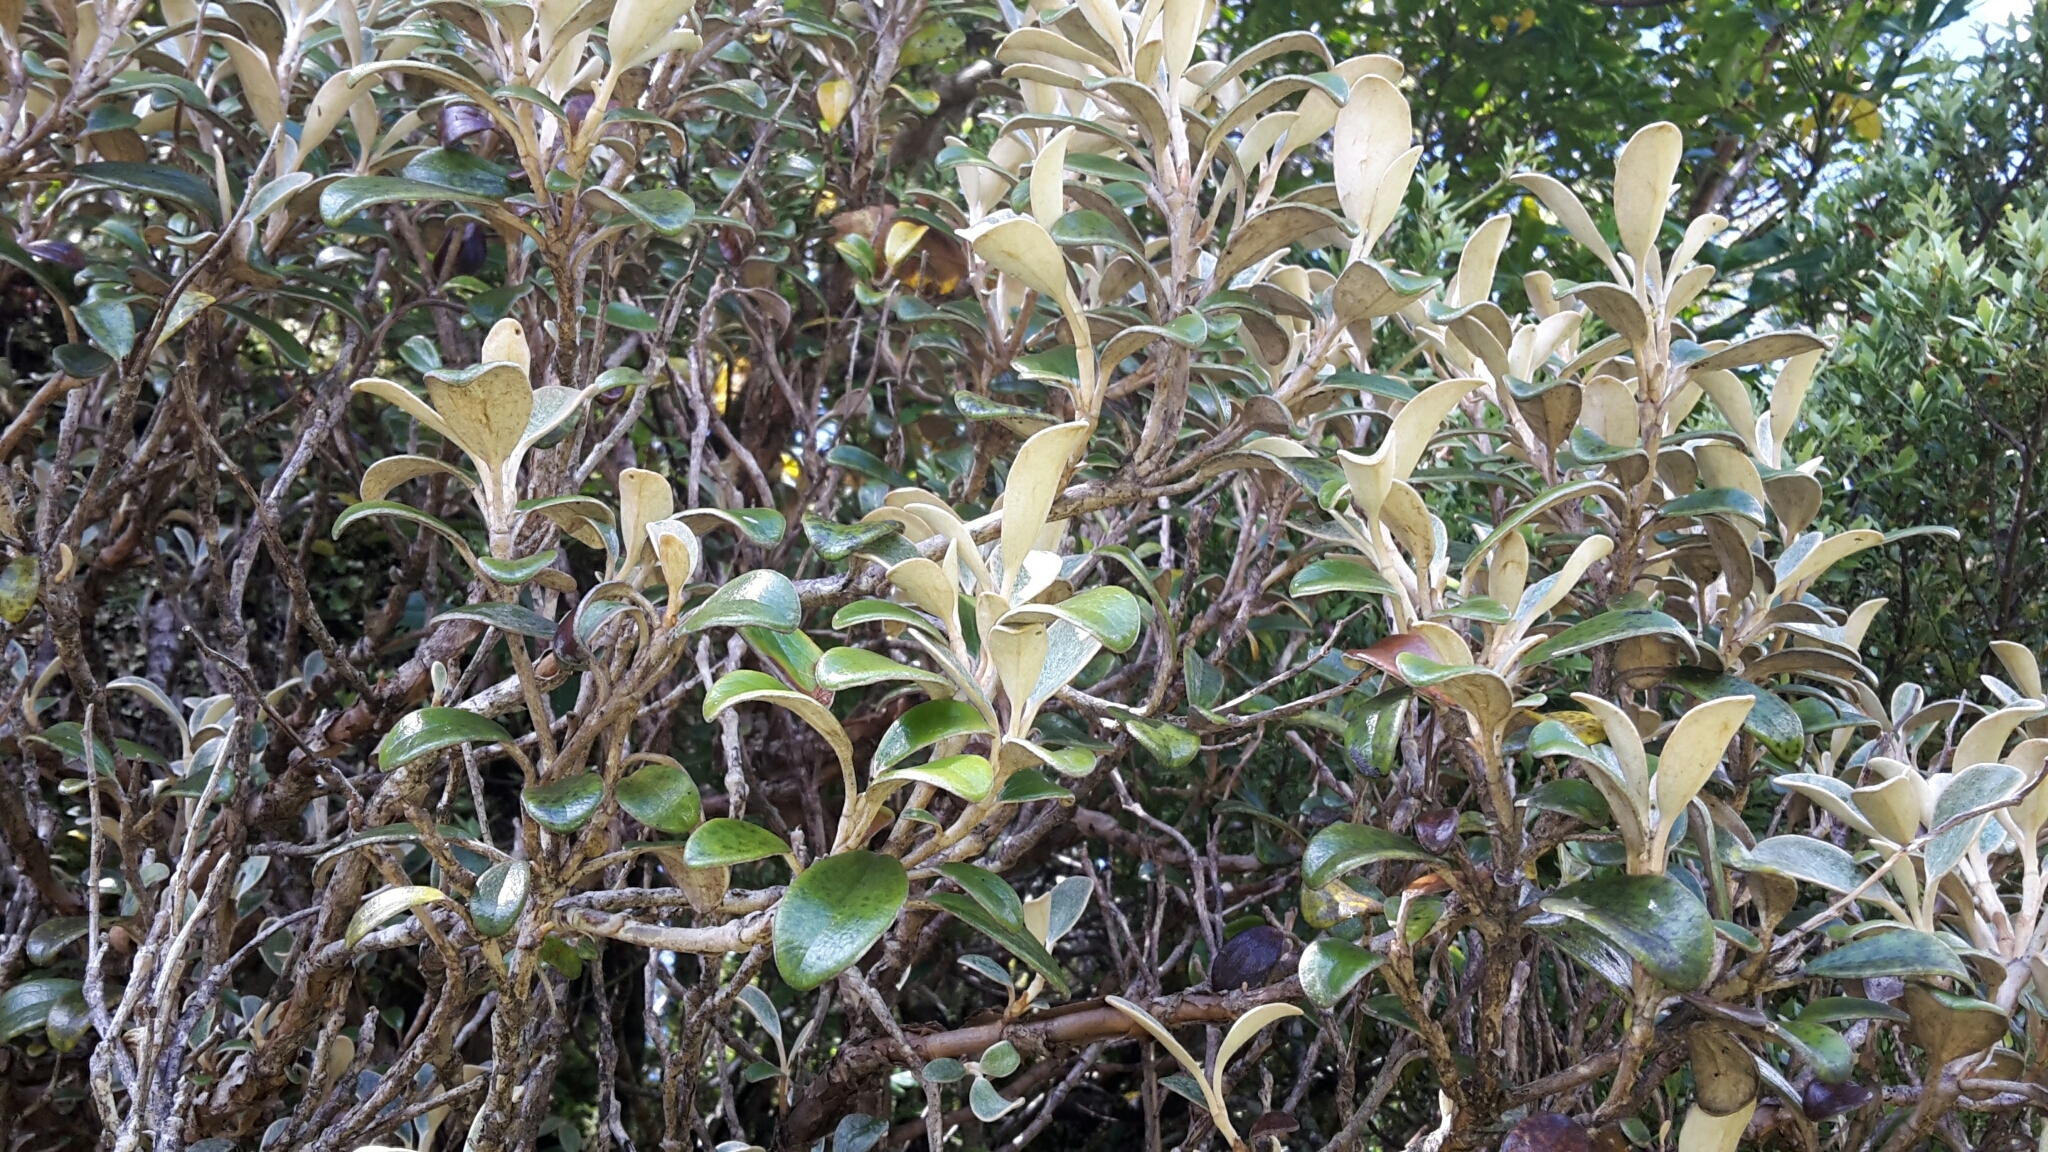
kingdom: Plantae
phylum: Tracheophyta
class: Magnoliopsida
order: Asterales
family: Asteraceae
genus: Brachyglottis
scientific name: Brachyglottis bidwillii
